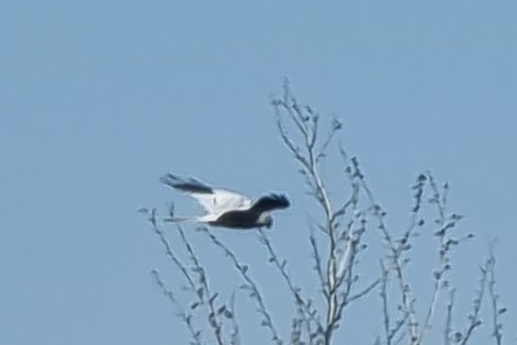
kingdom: Animalia
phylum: Chordata
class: Aves
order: Accipitriformes
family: Accipitridae
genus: Circus
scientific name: Circus pygargus
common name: Montagu's harrier
